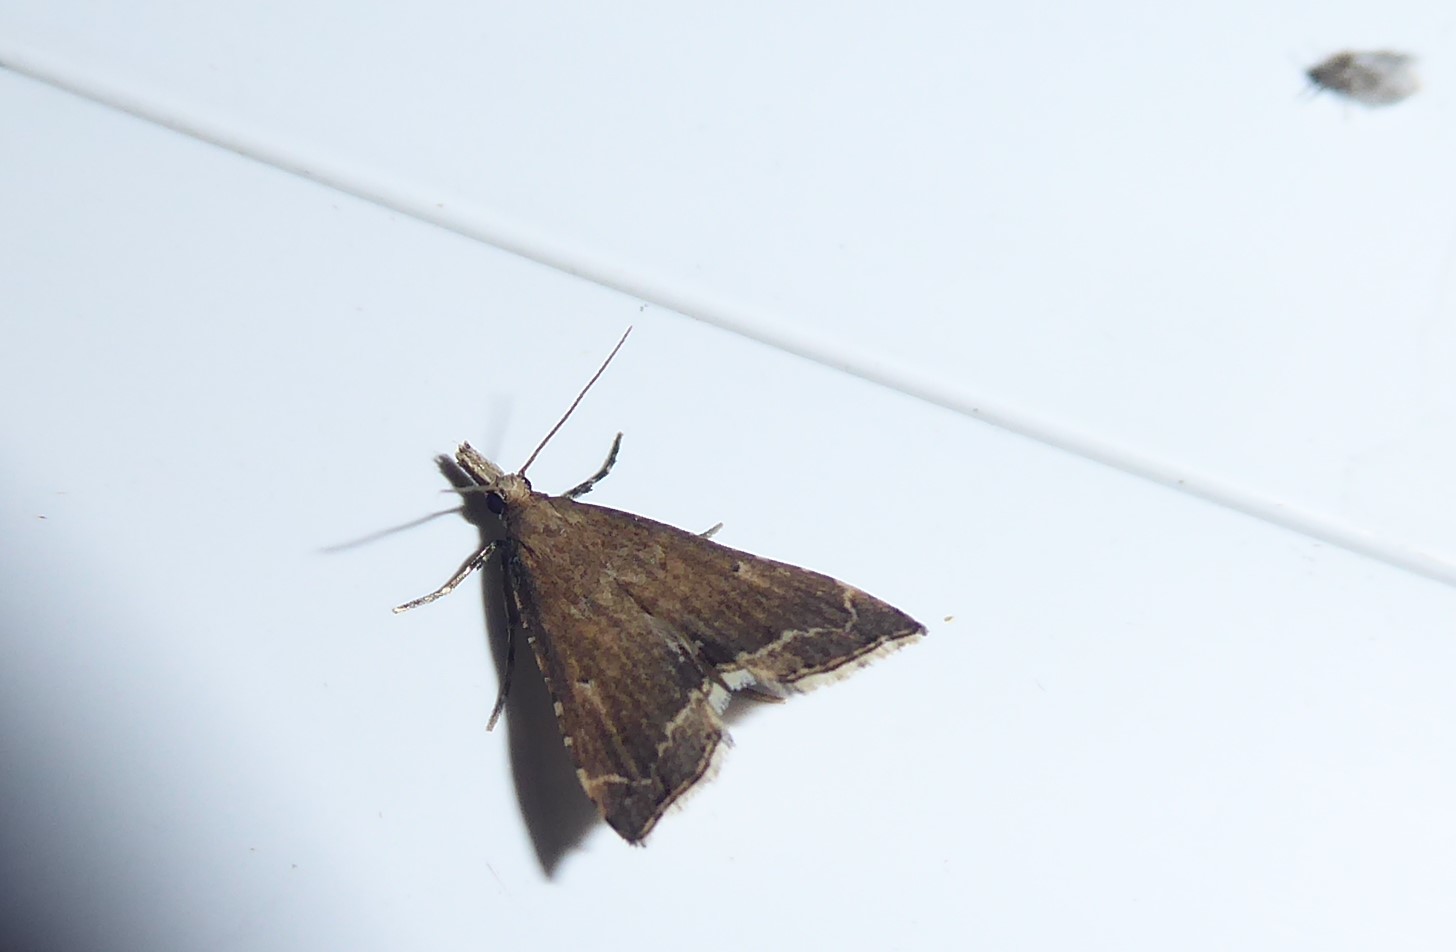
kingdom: Animalia
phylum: Arthropoda
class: Insecta
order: Lepidoptera
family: Crambidae
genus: Diplopseustis
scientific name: Diplopseustis perieresalis
